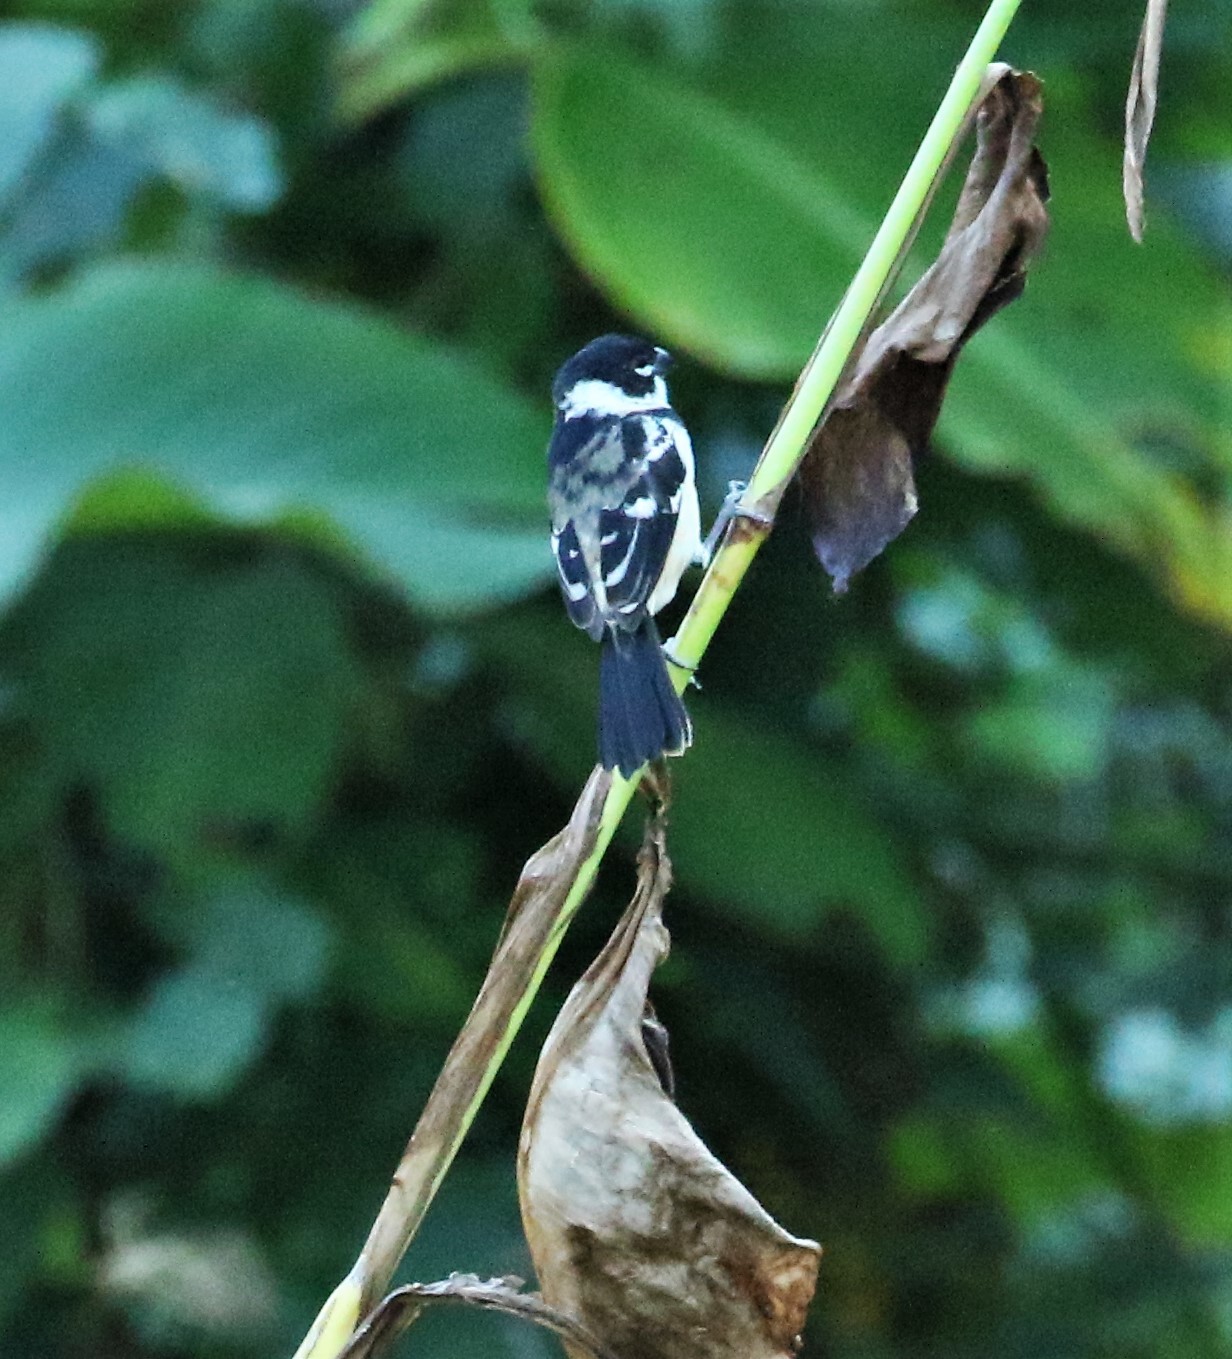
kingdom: Animalia
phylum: Chordata
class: Aves
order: Passeriformes
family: Thraupidae
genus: Sporophila
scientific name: Sporophila morelleti
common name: Morelet's seedeater
